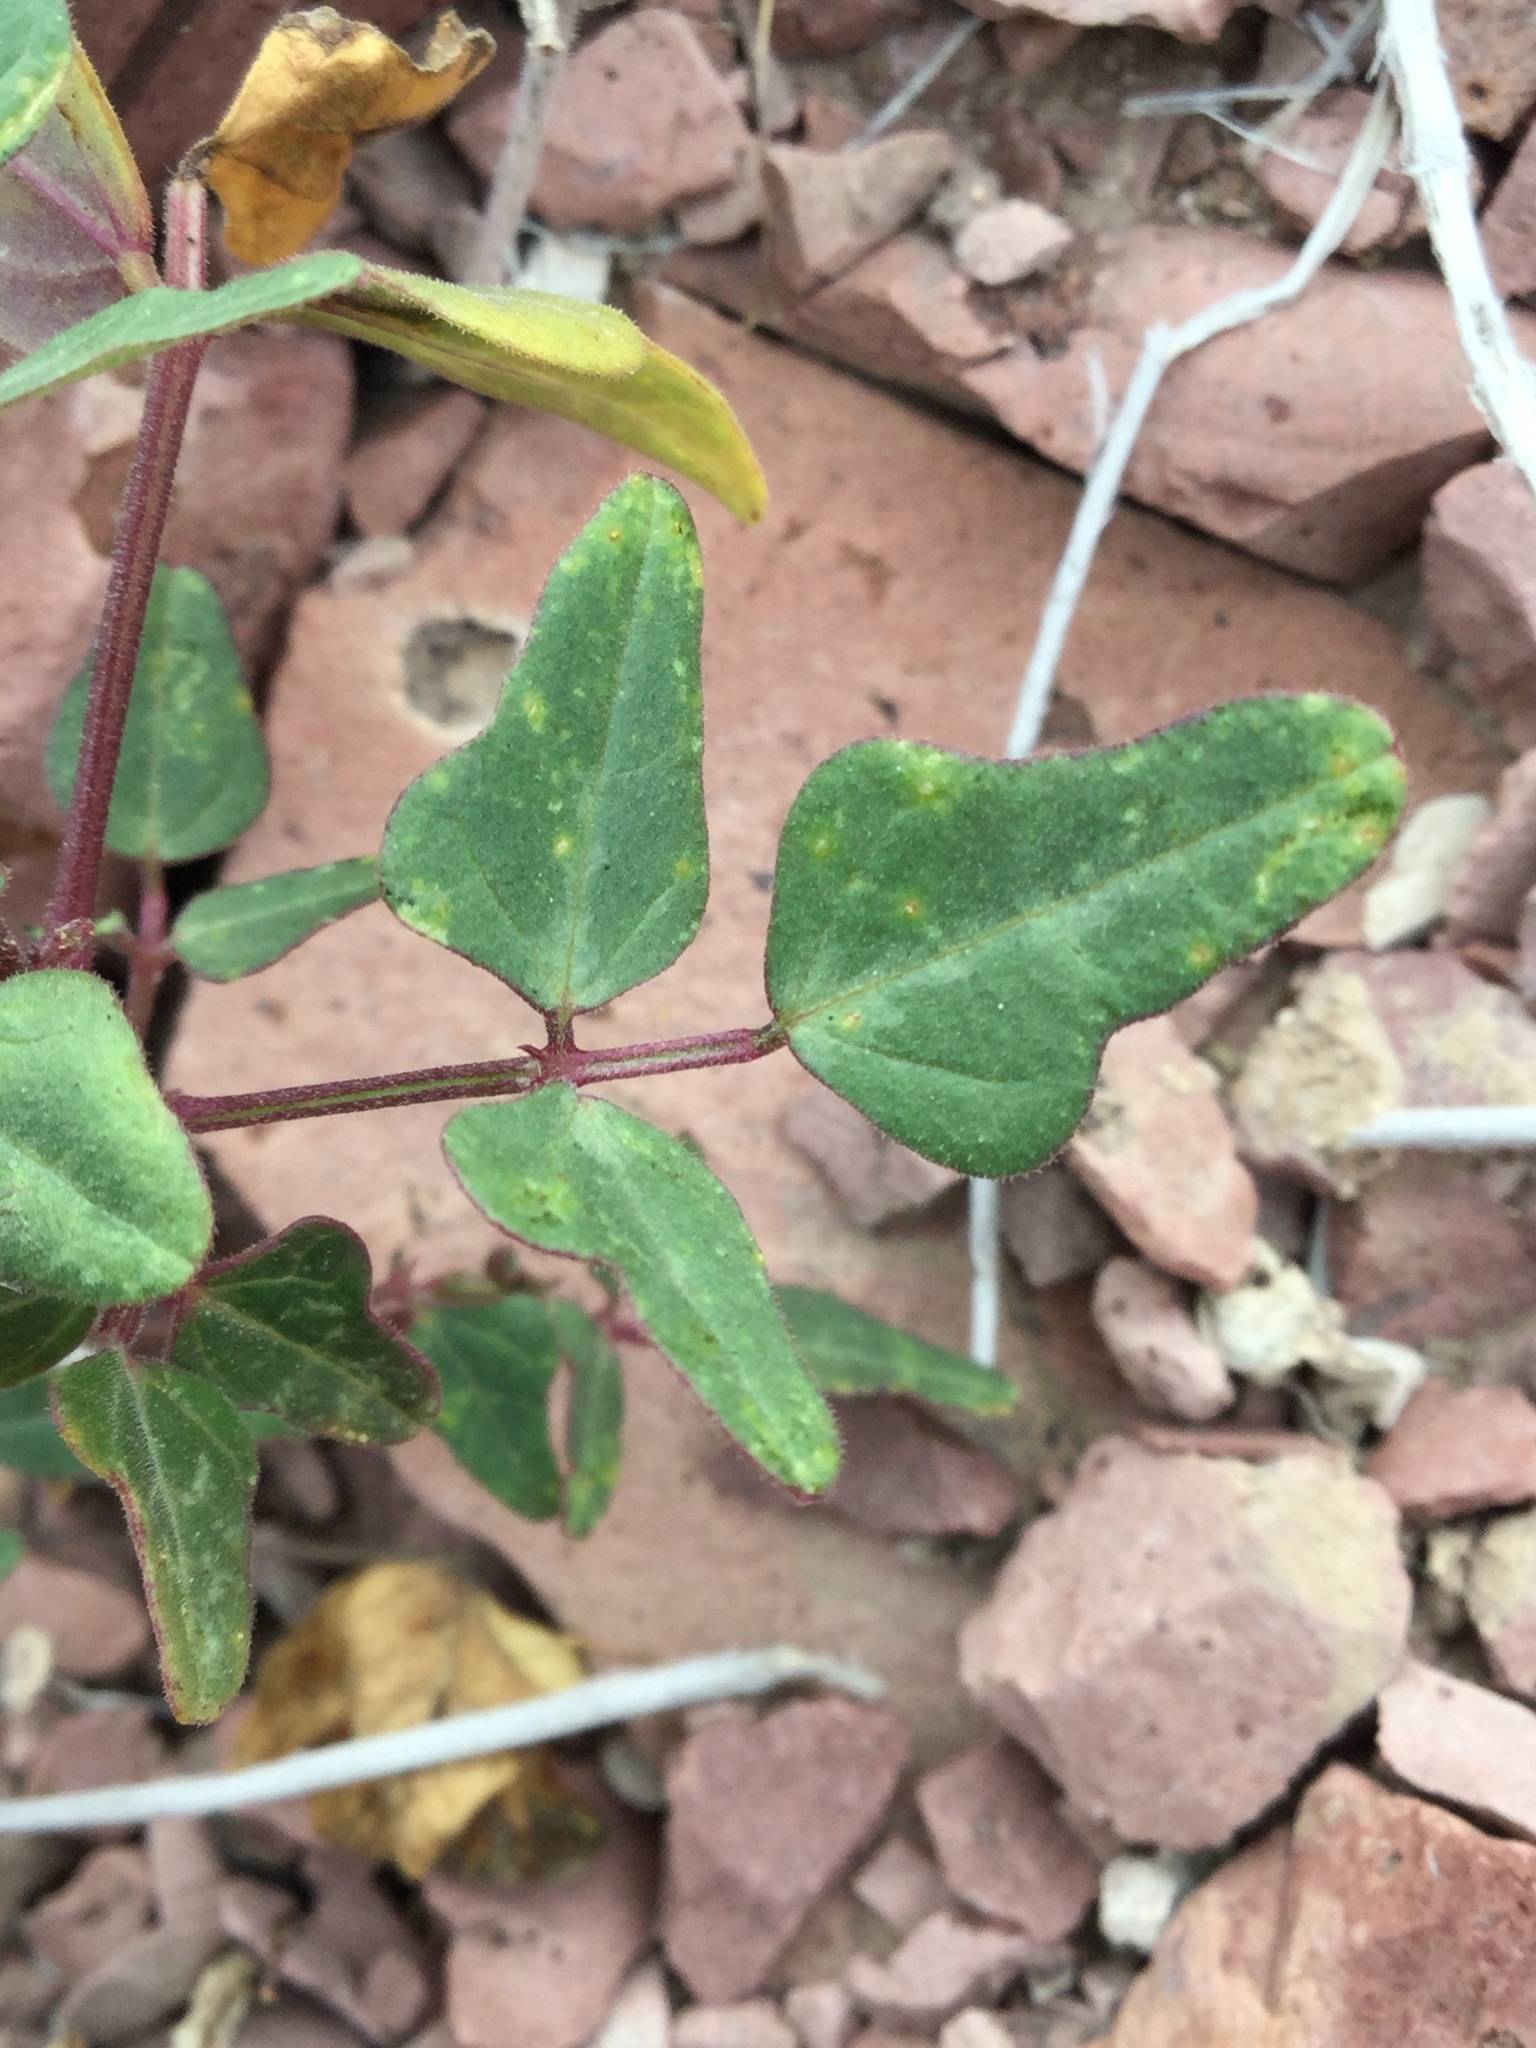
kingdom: Plantae
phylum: Tracheophyta
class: Magnoliopsida
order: Fabales
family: Fabaceae
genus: Phaseolus
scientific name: Phaseolus filiformis
